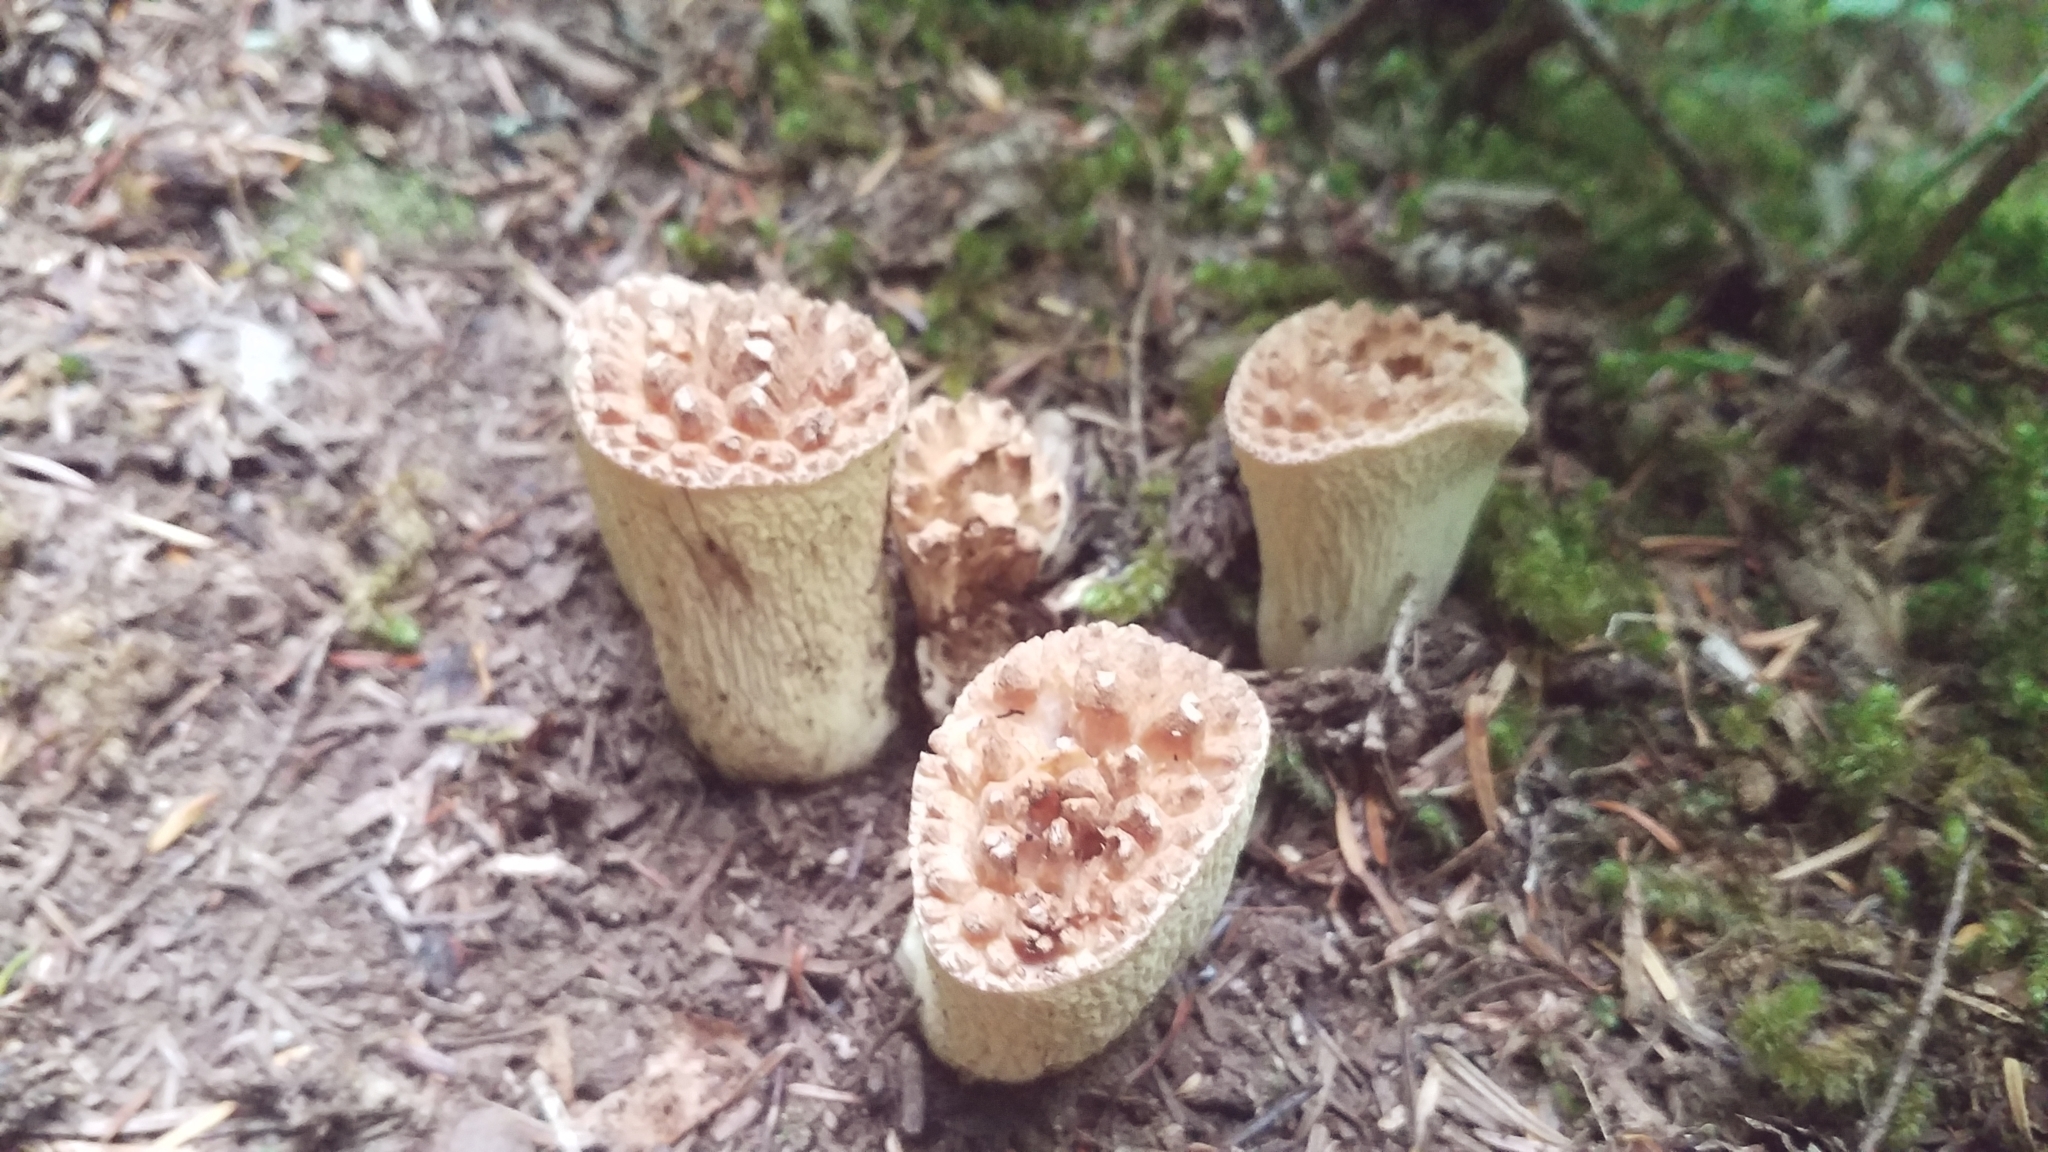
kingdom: Fungi
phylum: Basidiomycota
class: Agaricomycetes
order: Gomphales
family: Gomphaceae
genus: Turbinellus
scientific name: Turbinellus kauffmanii
